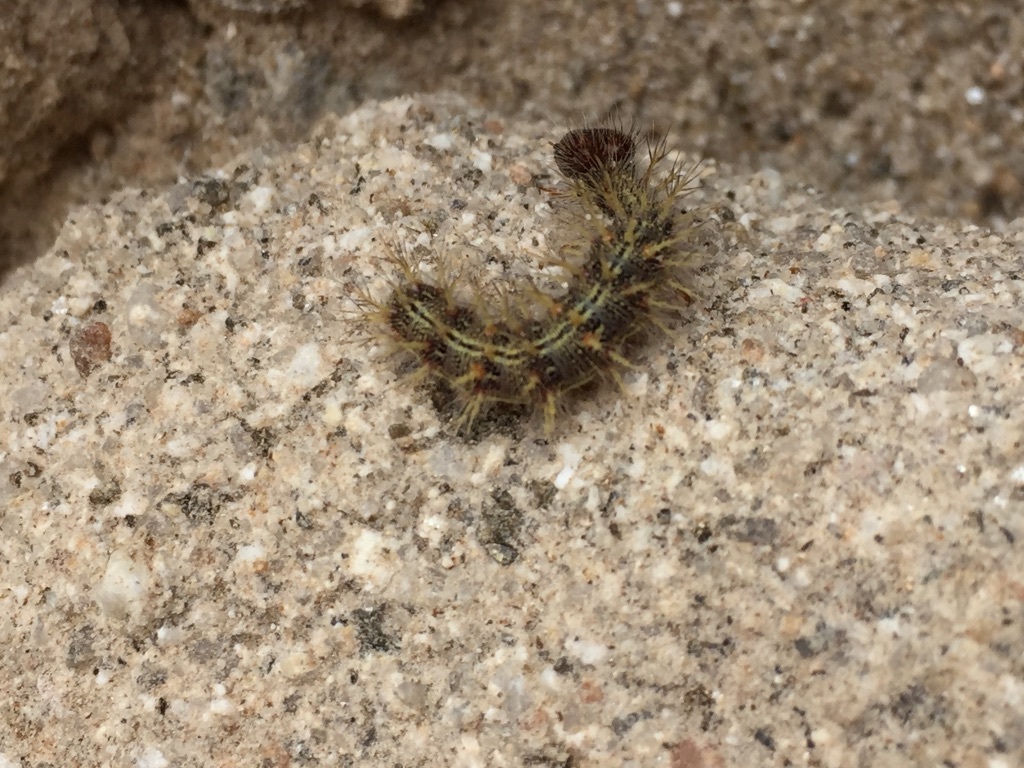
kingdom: Animalia
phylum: Arthropoda
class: Insecta
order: Lepidoptera
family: Nymphalidae
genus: Vanessa
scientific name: Vanessa cardui
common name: Painted lady
